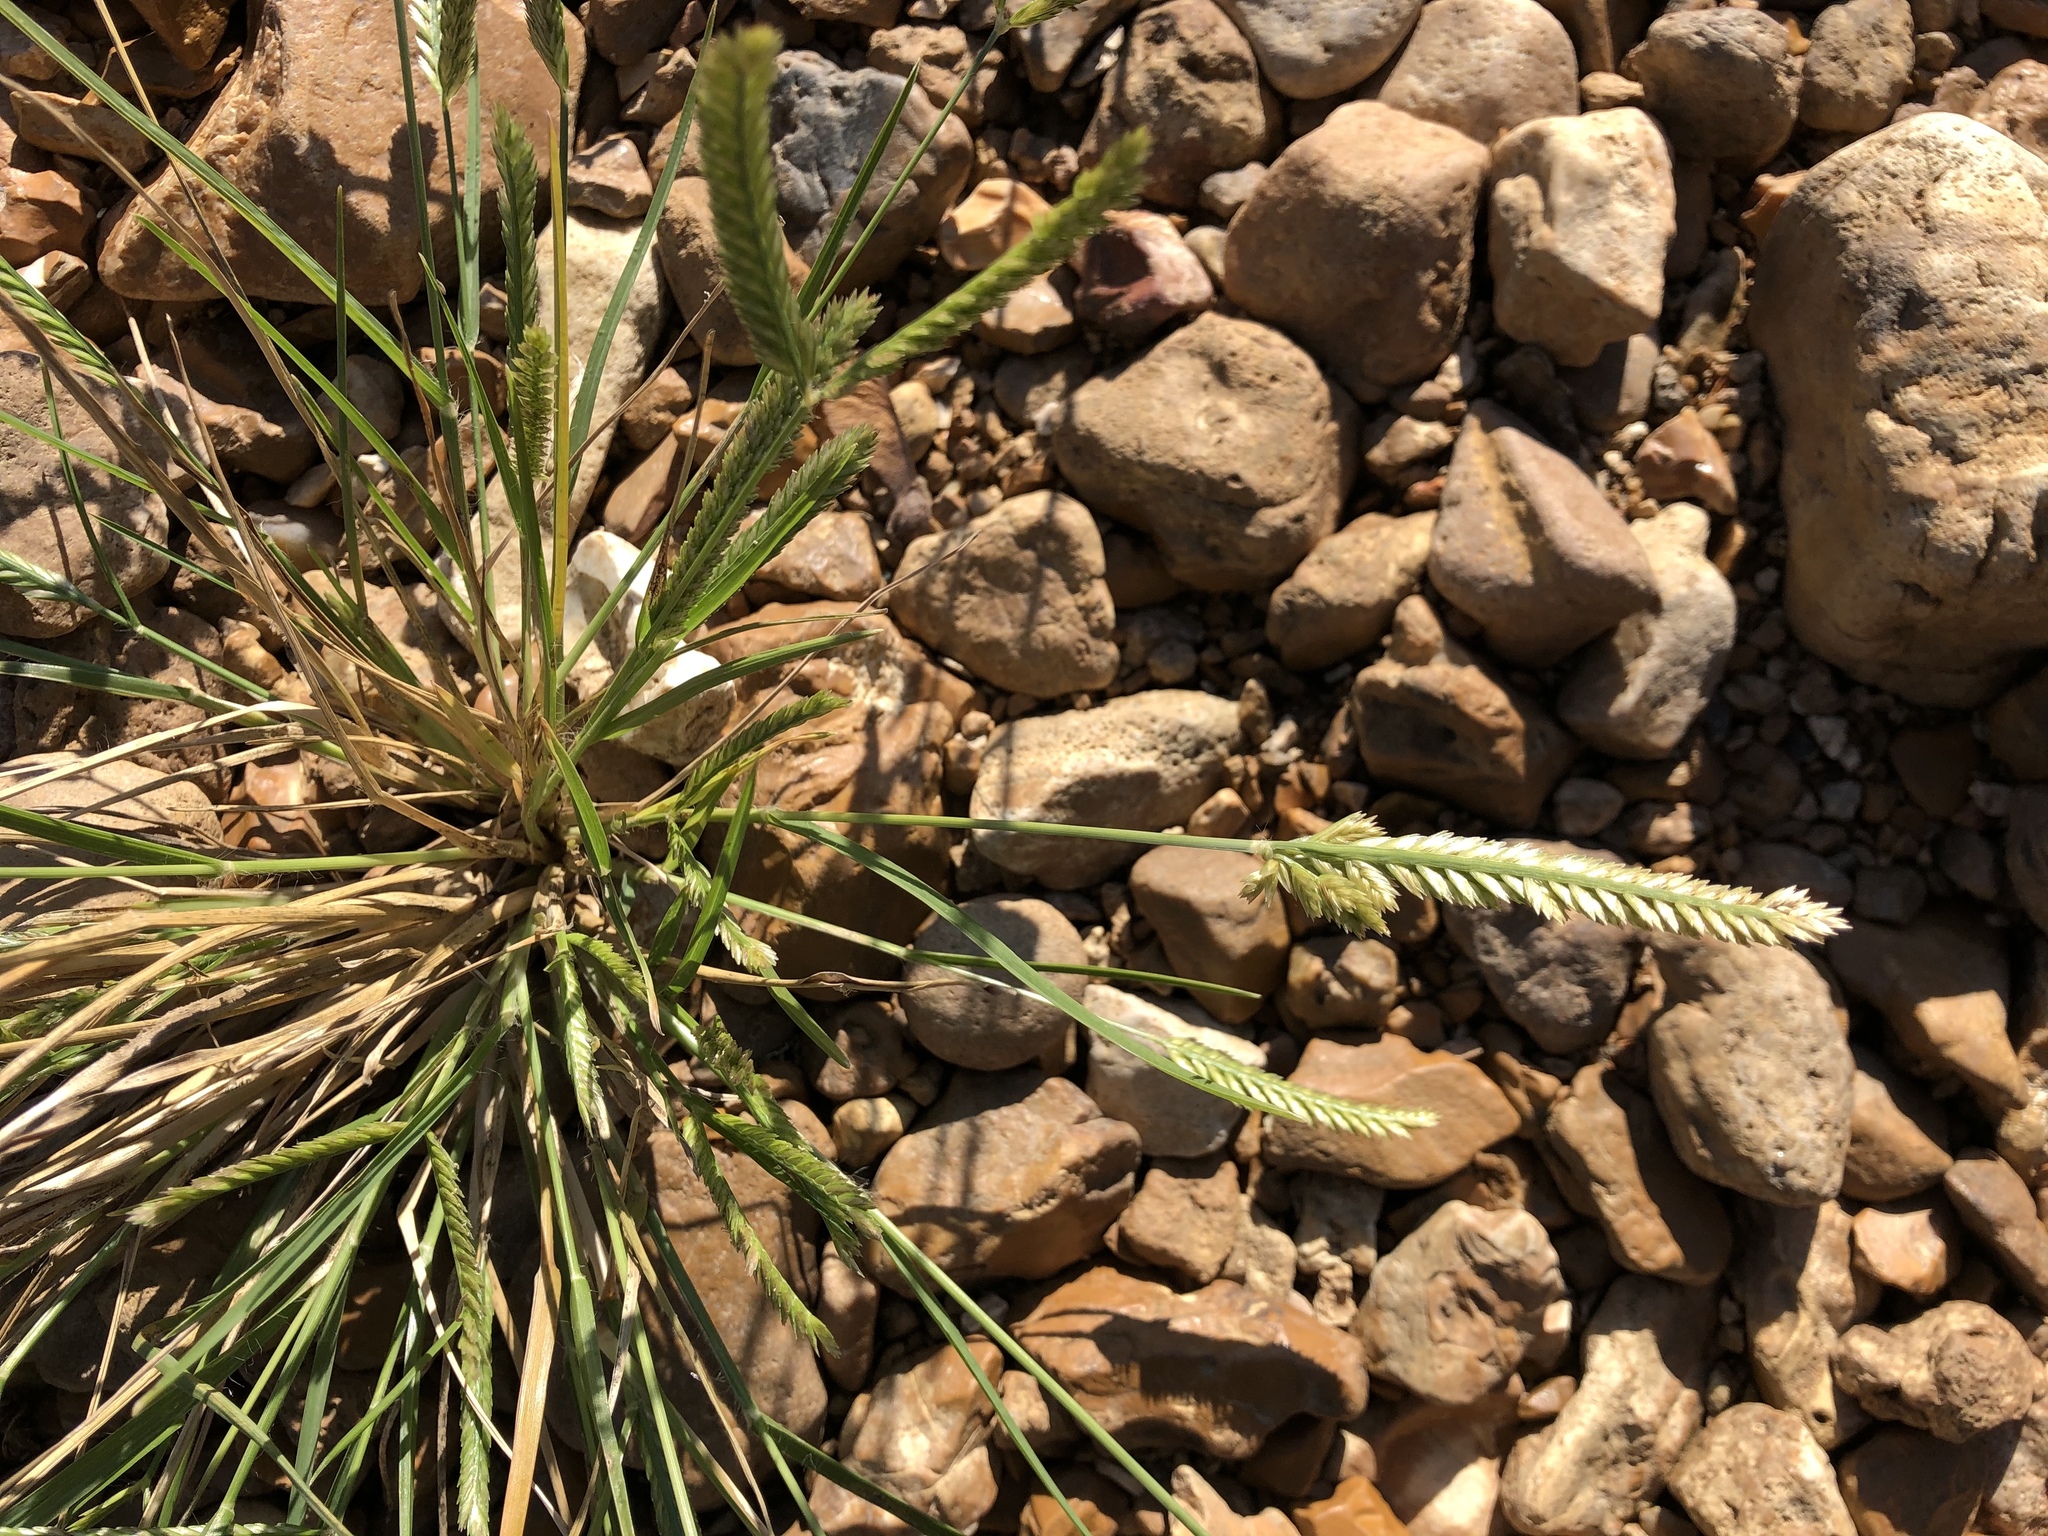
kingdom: Plantae
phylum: Tracheophyta
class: Liliopsida
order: Poales
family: Poaceae
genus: Eleusine
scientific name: Eleusine indica
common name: Yard-grass
